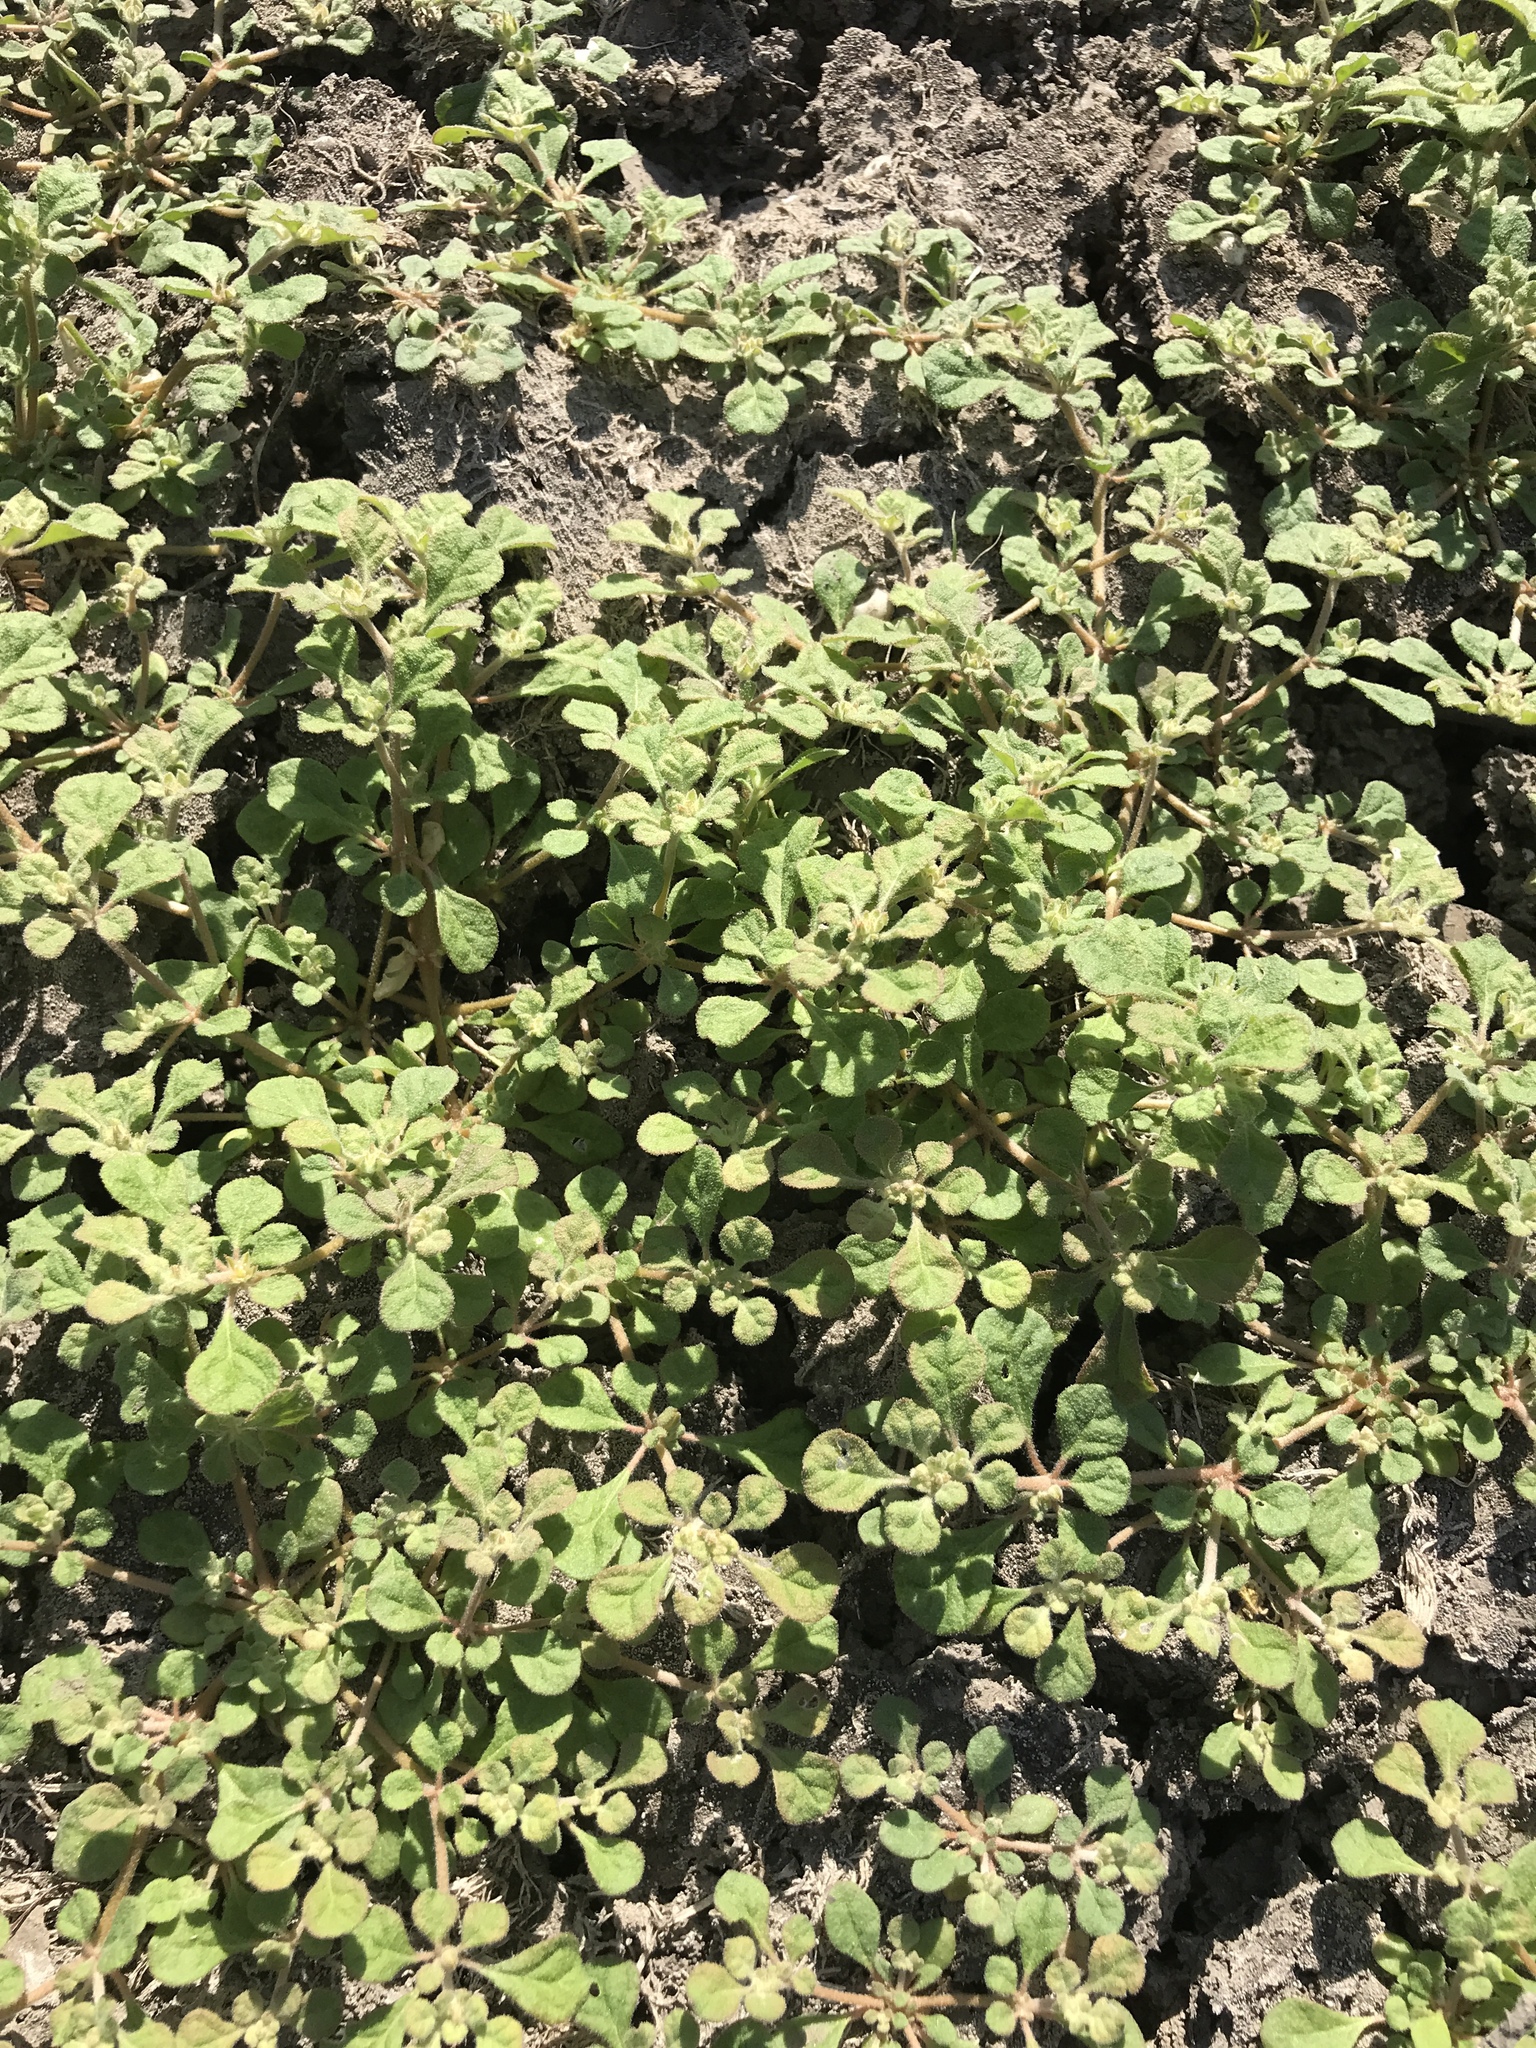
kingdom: Plantae
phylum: Tracheophyta
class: Magnoliopsida
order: Caryophyllales
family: Aizoaceae
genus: Trianthema
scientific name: Trianthema portulacastrum
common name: Desert horsepurslane
